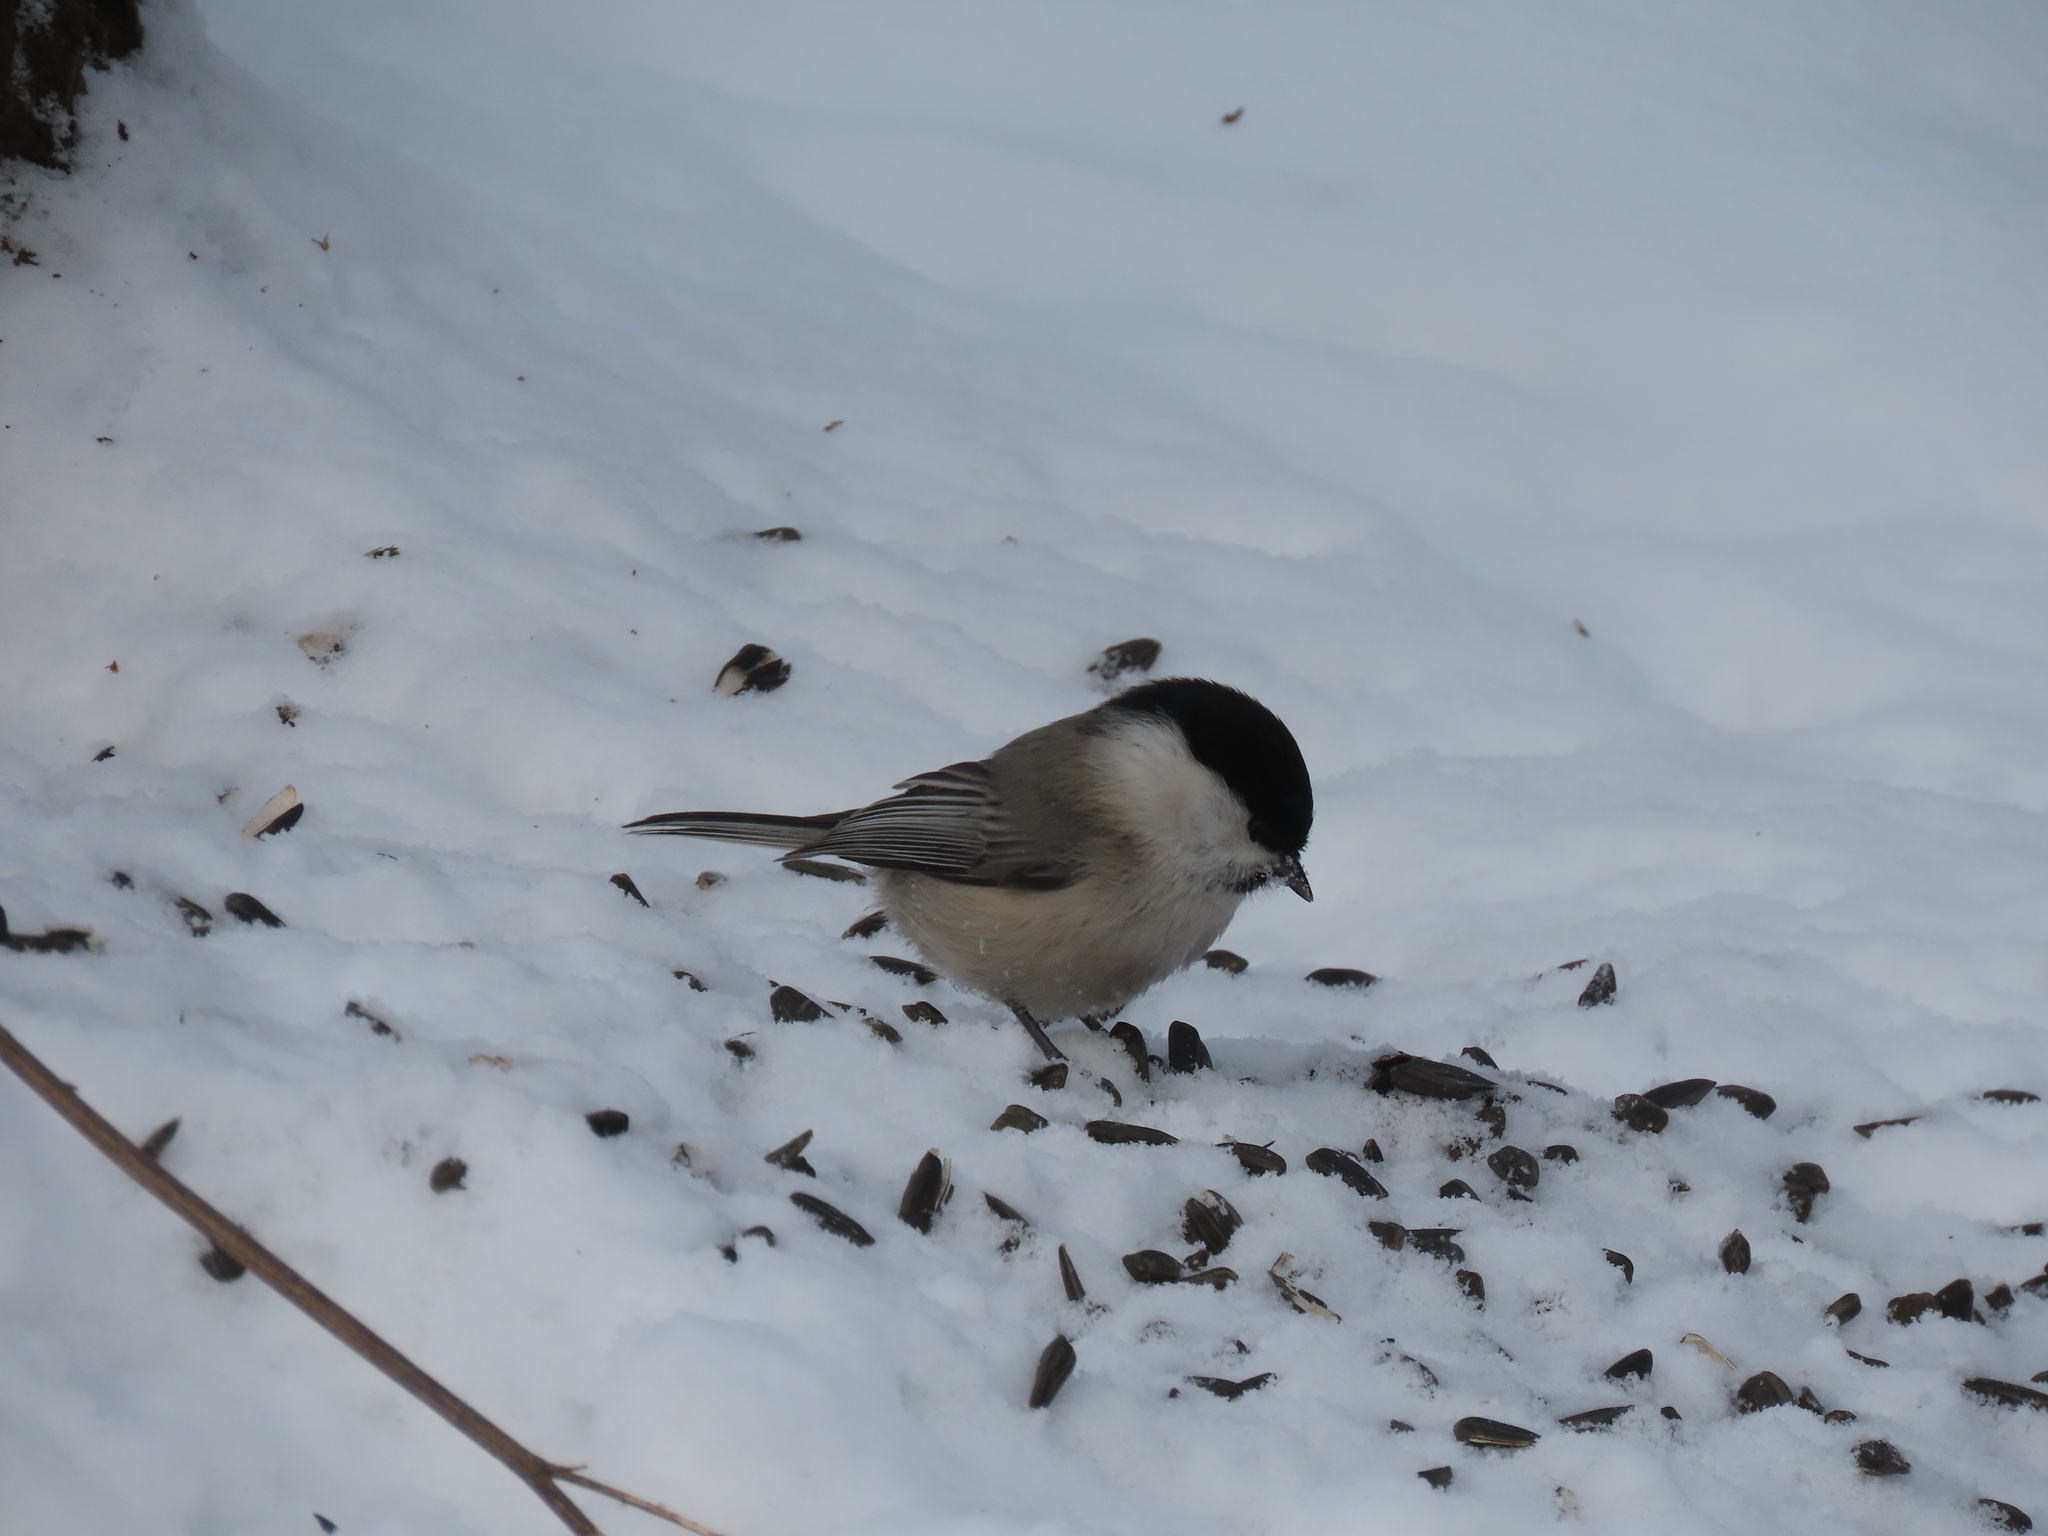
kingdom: Animalia
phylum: Chordata
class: Aves
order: Passeriformes
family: Paridae
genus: Poecile
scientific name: Poecile palustris
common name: Marsh tit
